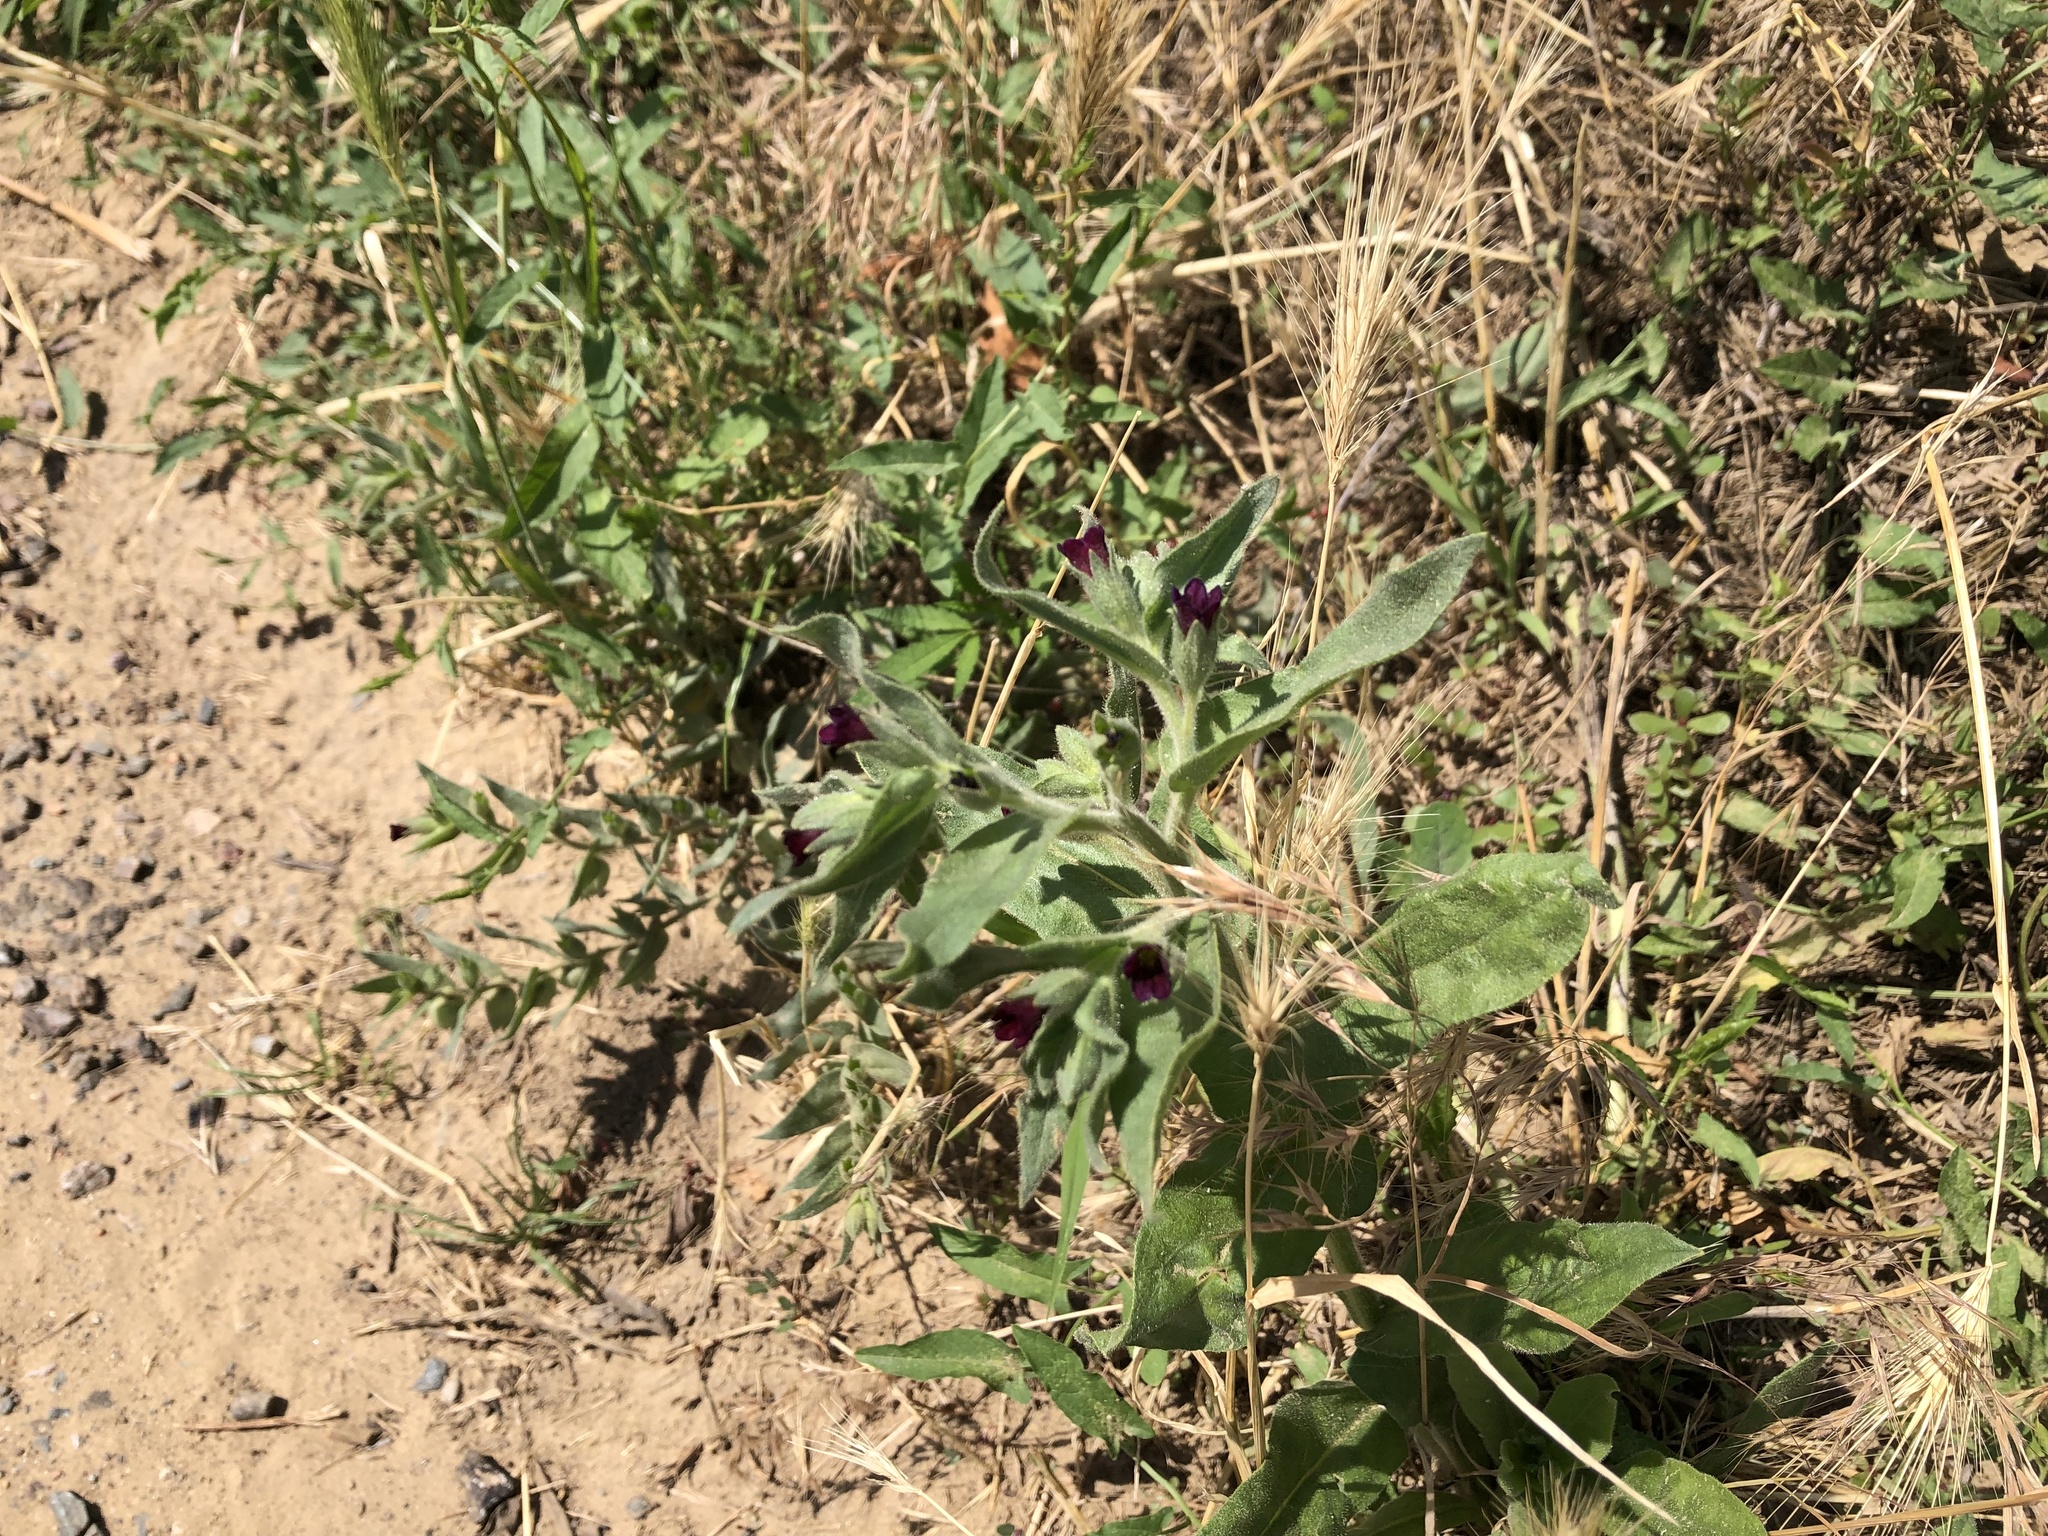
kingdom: Plantae
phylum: Tracheophyta
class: Magnoliopsida
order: Boraginales
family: Boraginaceae
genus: Nonea
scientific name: Nonea pulla
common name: Brown nonea
